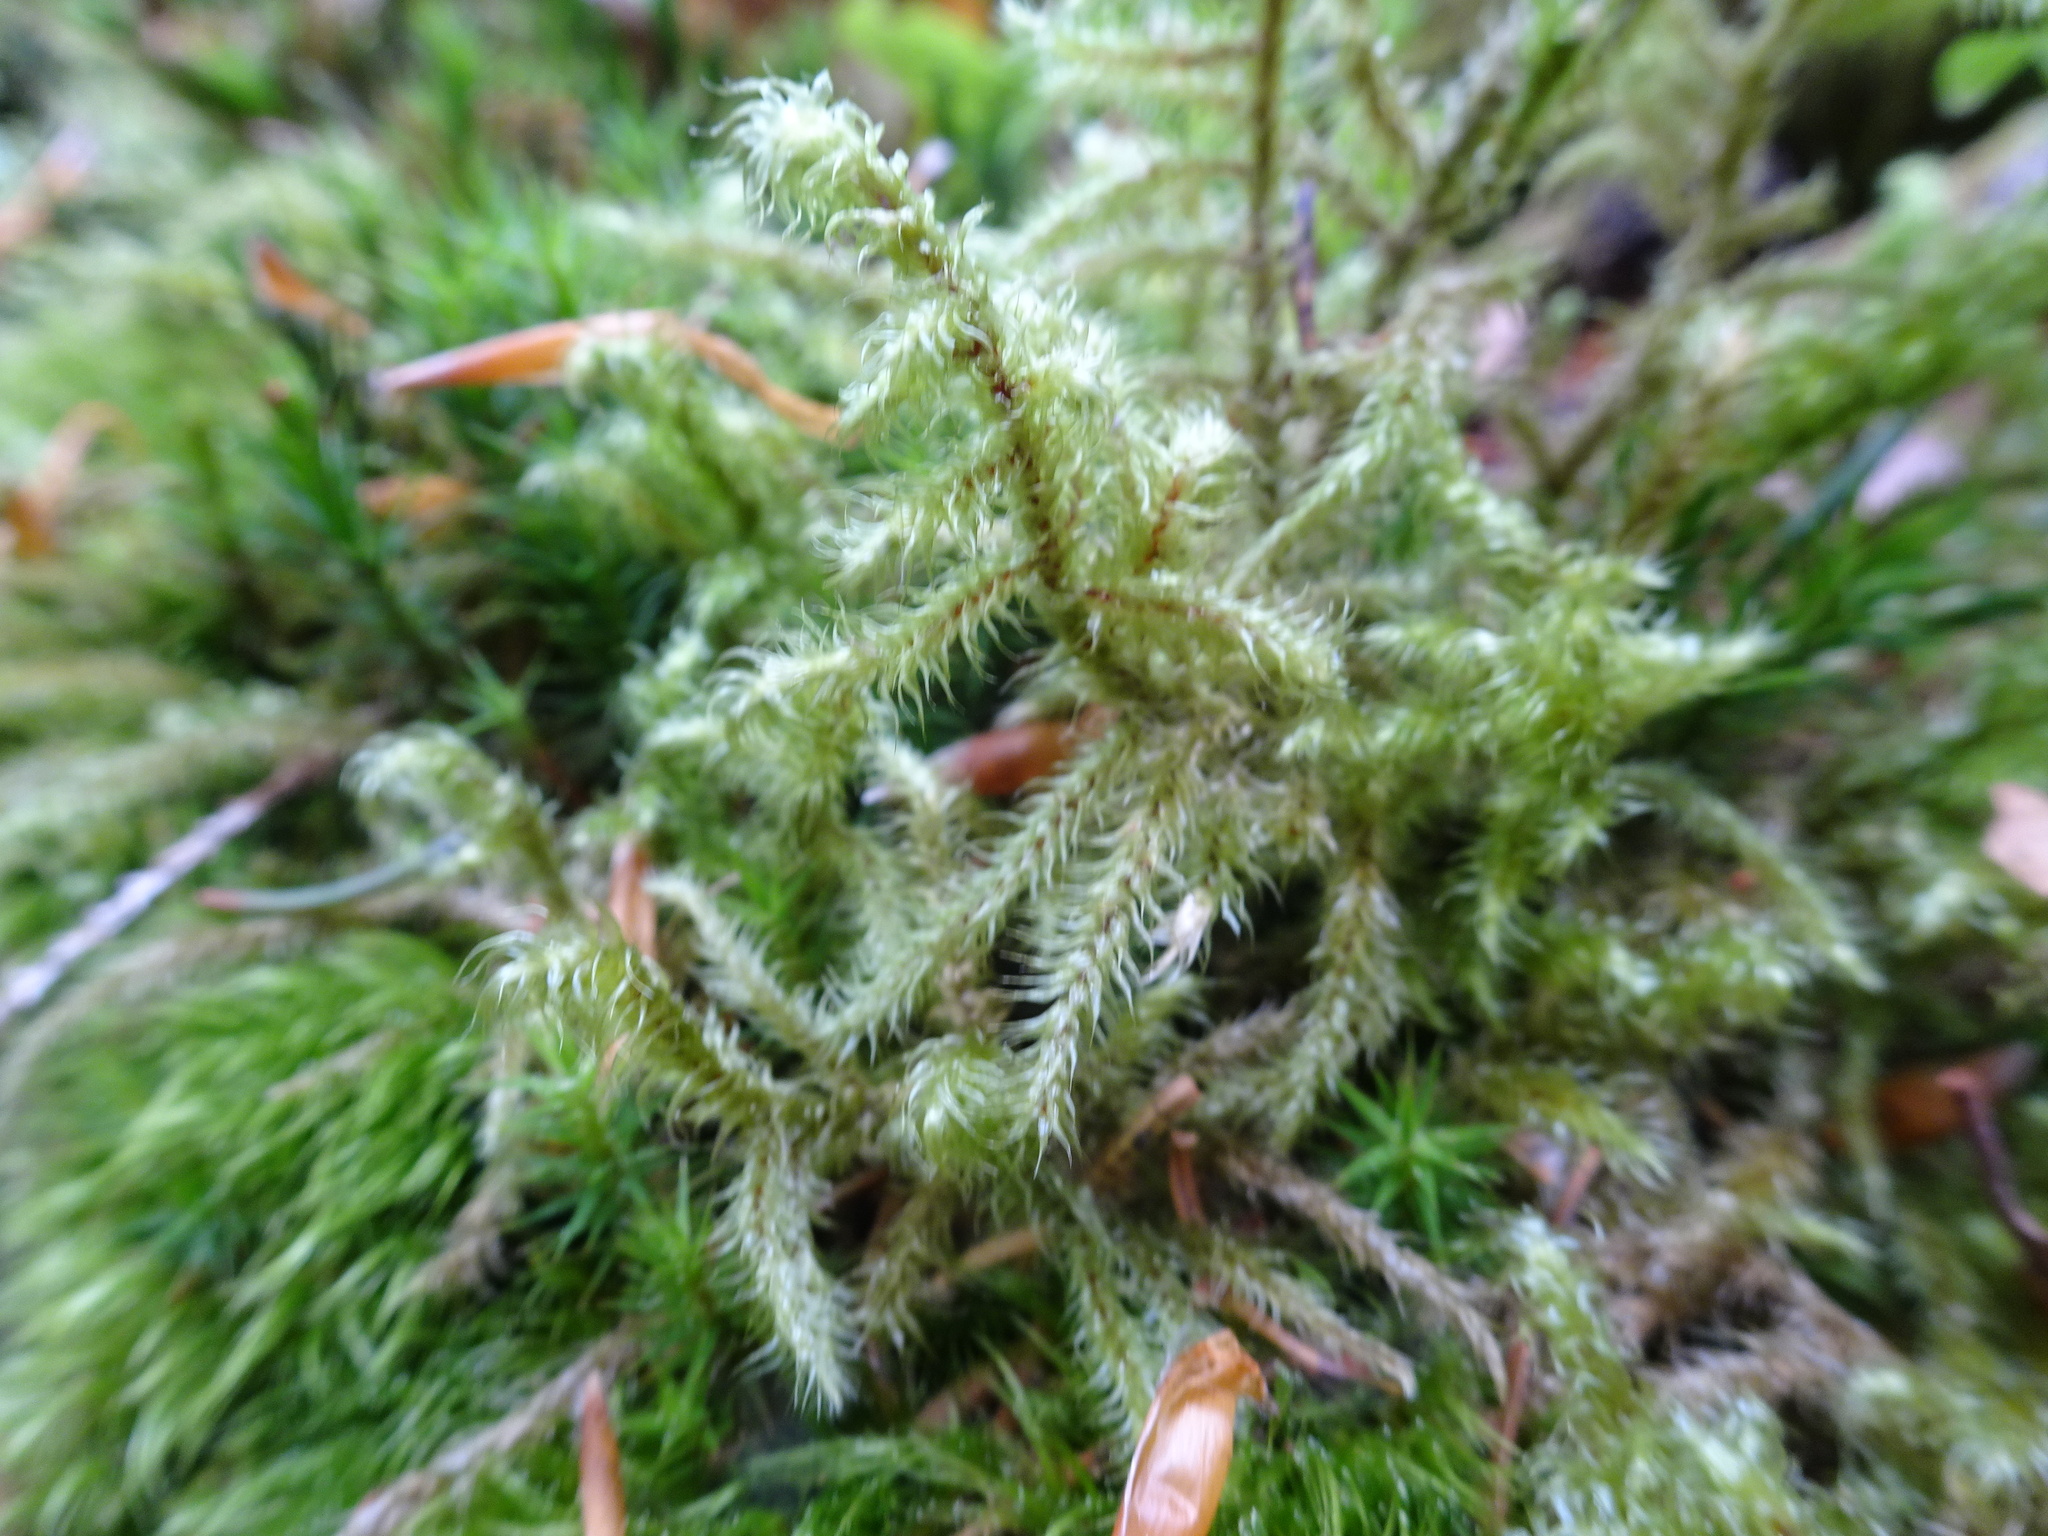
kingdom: Plantae
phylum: Bryophyta
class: Bryopsida
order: Hypnales
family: Hylocomiaceae
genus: Rhytidiadelphus
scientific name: Rhytidiadelphus loreus
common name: Lanky moss
